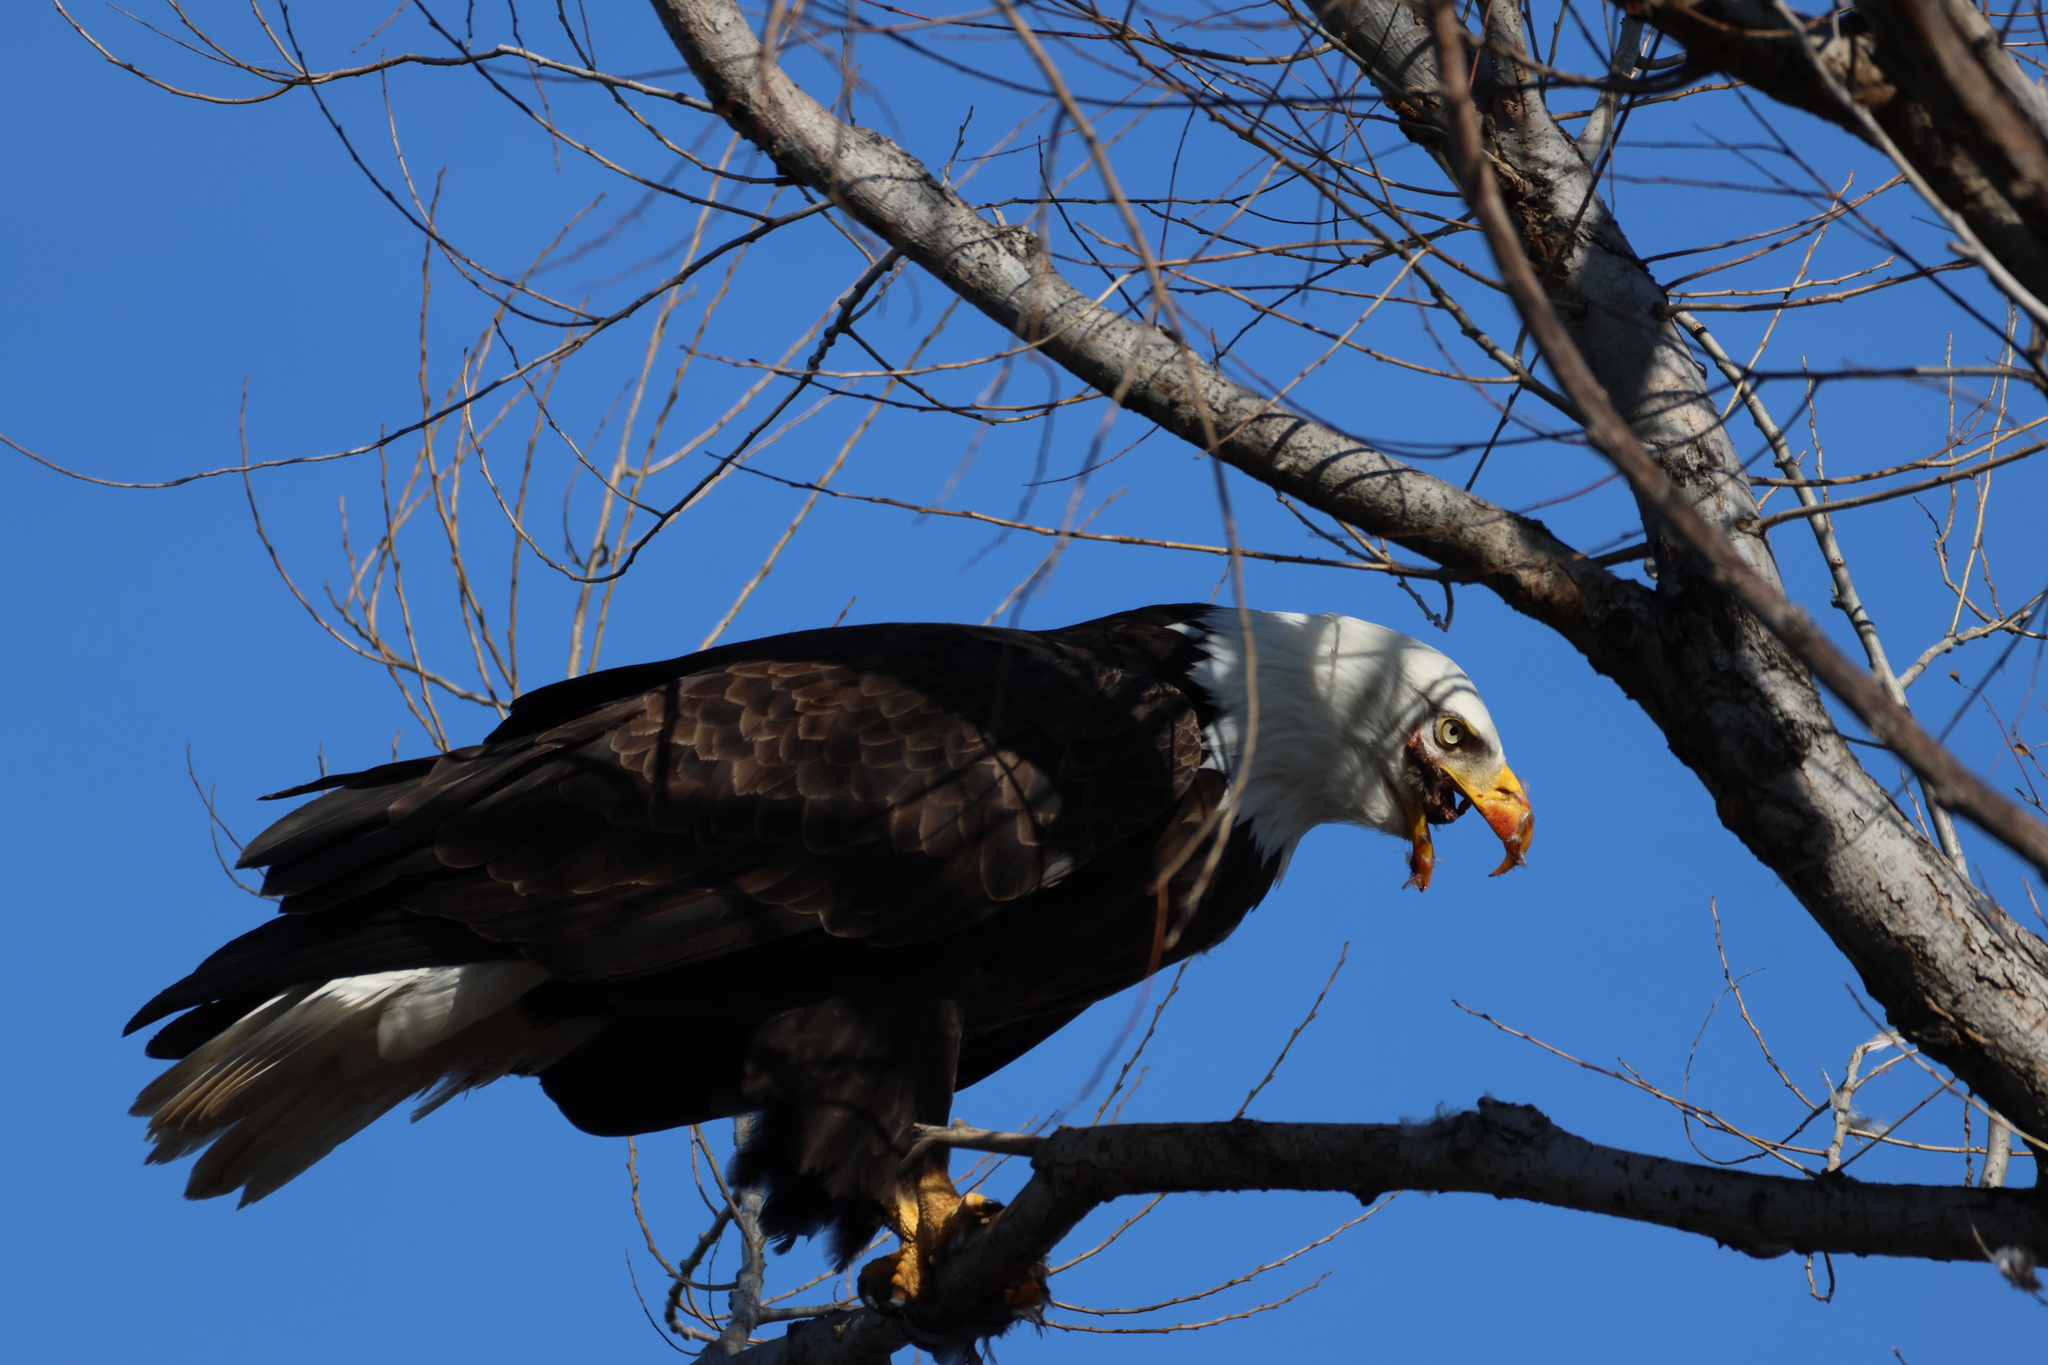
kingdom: Animalia
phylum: Chordata
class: Aves
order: Accipitriformes
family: Accipitridae
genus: Haliaeetus
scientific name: Haliaeetus leucocephalus
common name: Bald eagle
